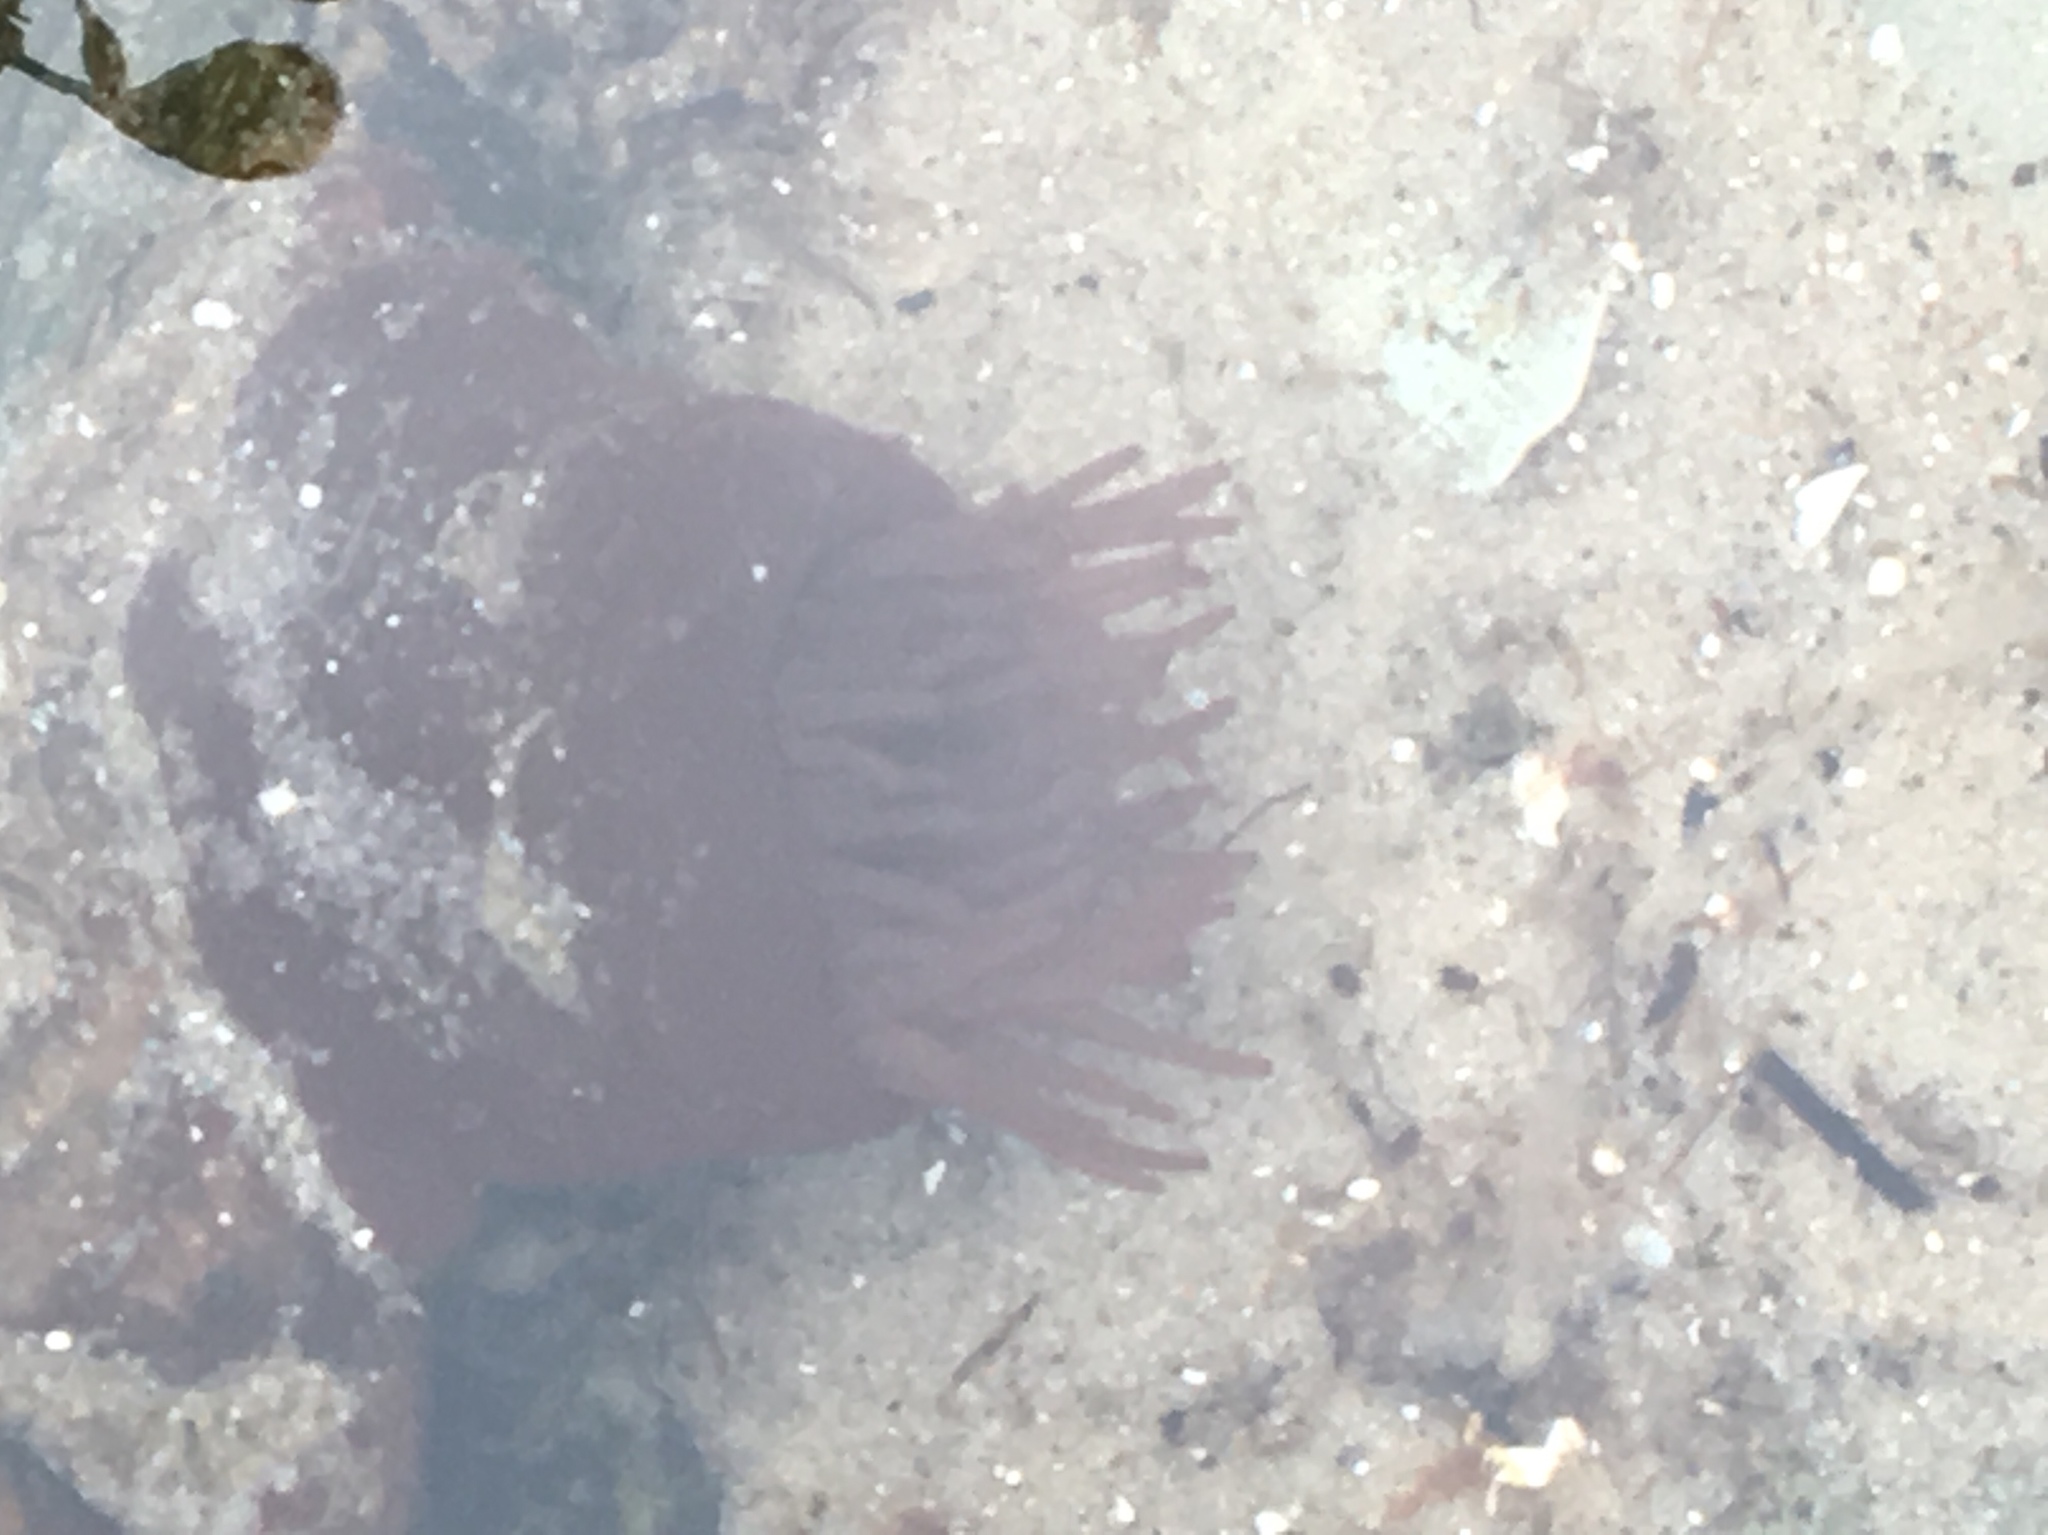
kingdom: Animalia
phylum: Cnidaria
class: Anthozoa
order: Actiniaria
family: Actiniidae
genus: Actinia
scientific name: Actinia equina
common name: Beadlet anemone
